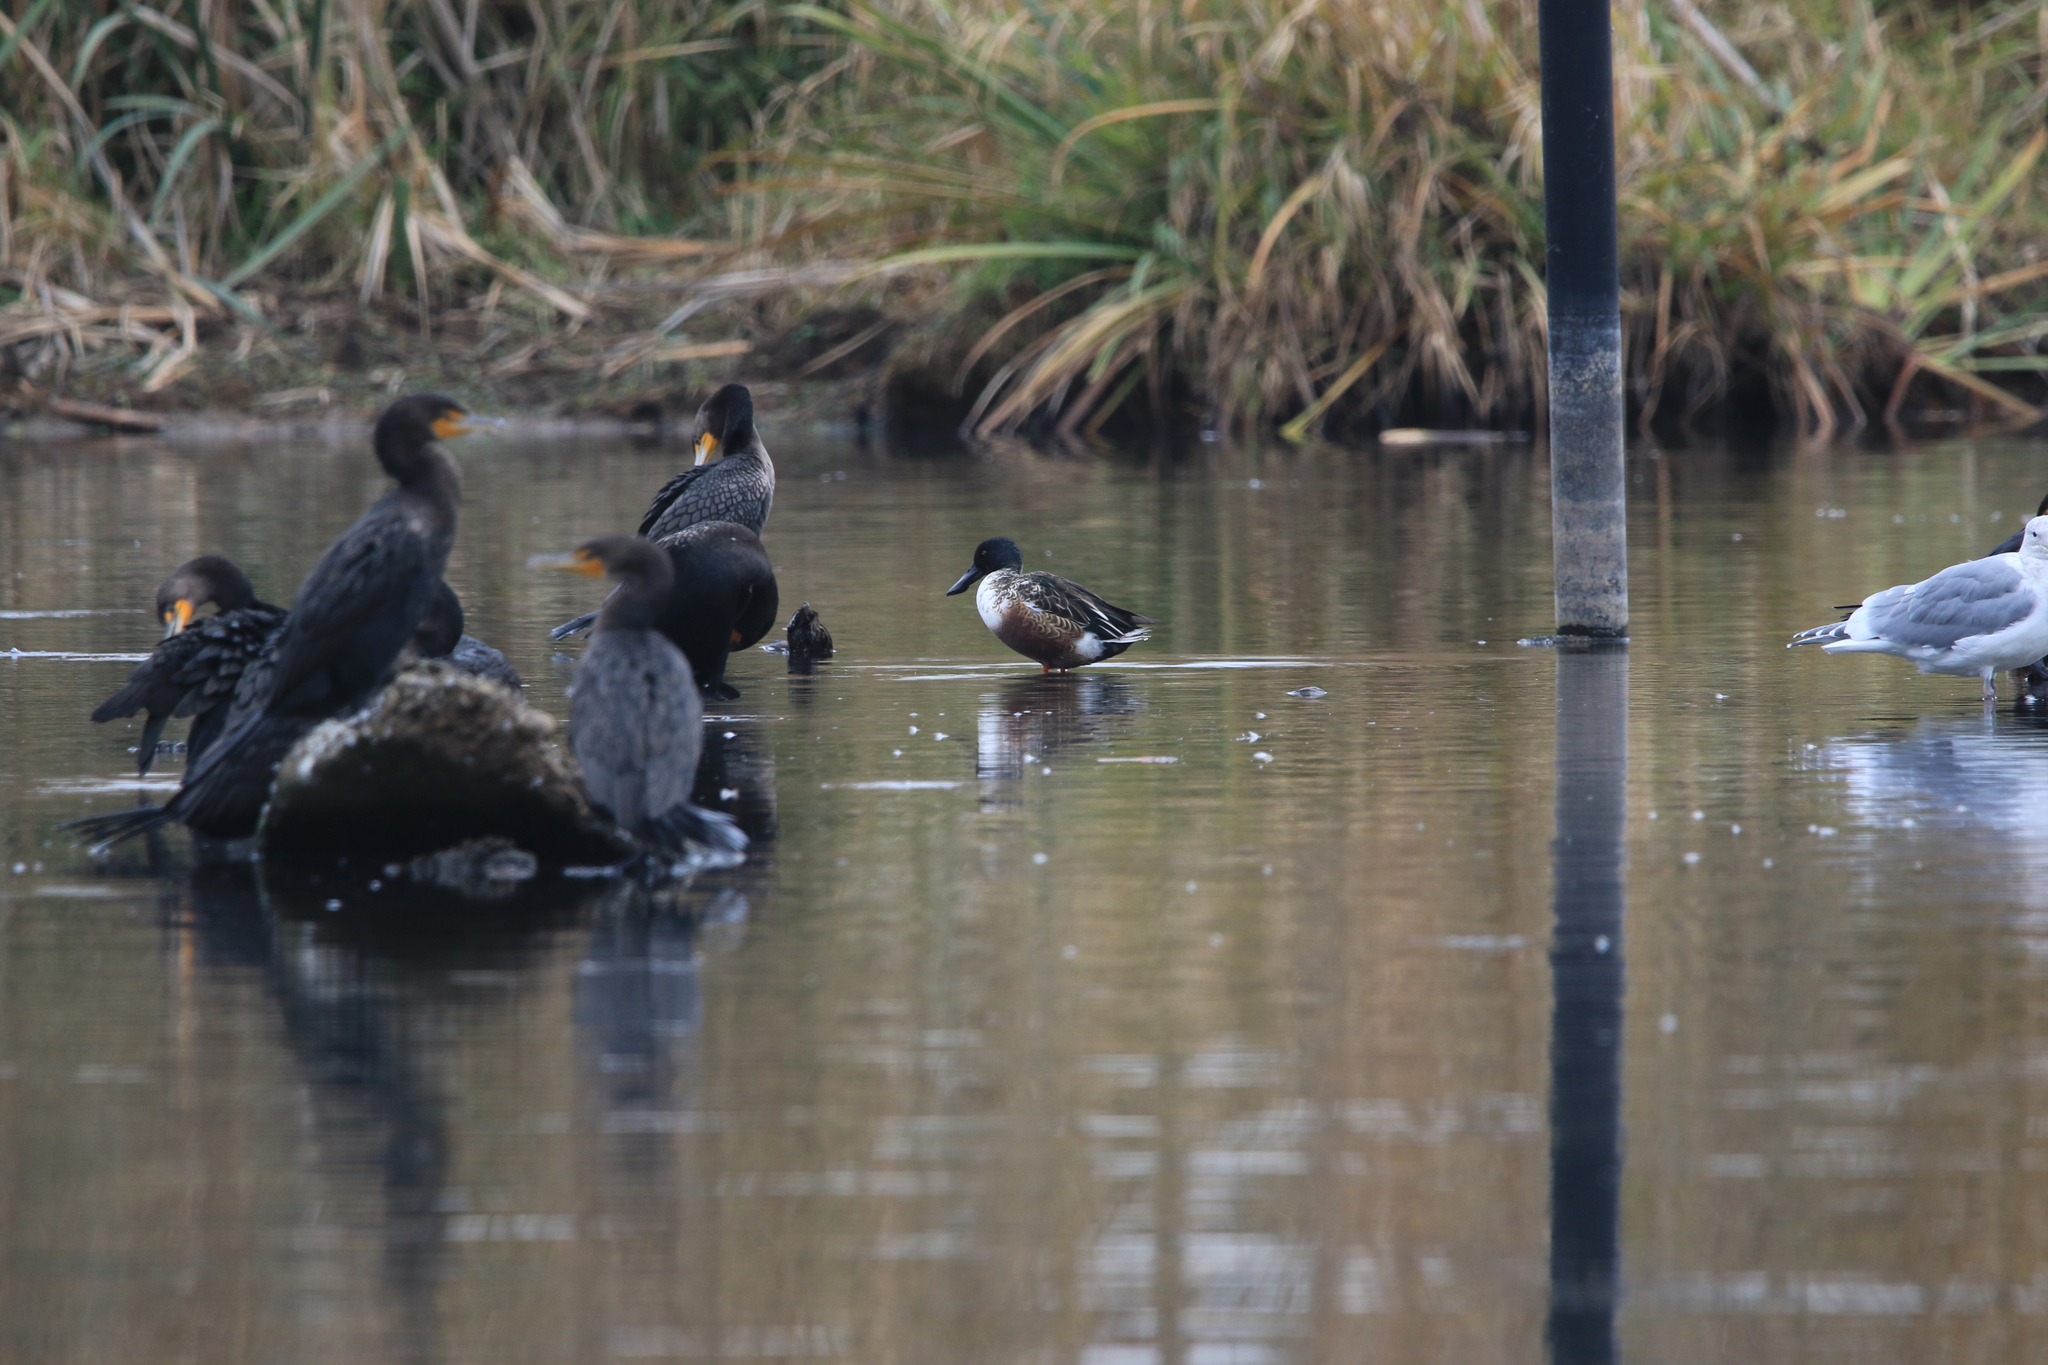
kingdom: Animalia
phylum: Chordata
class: Aves
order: Anseriformes
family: Anatidae
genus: Spatula
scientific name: Spatula clypeata
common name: Northern shoveler
